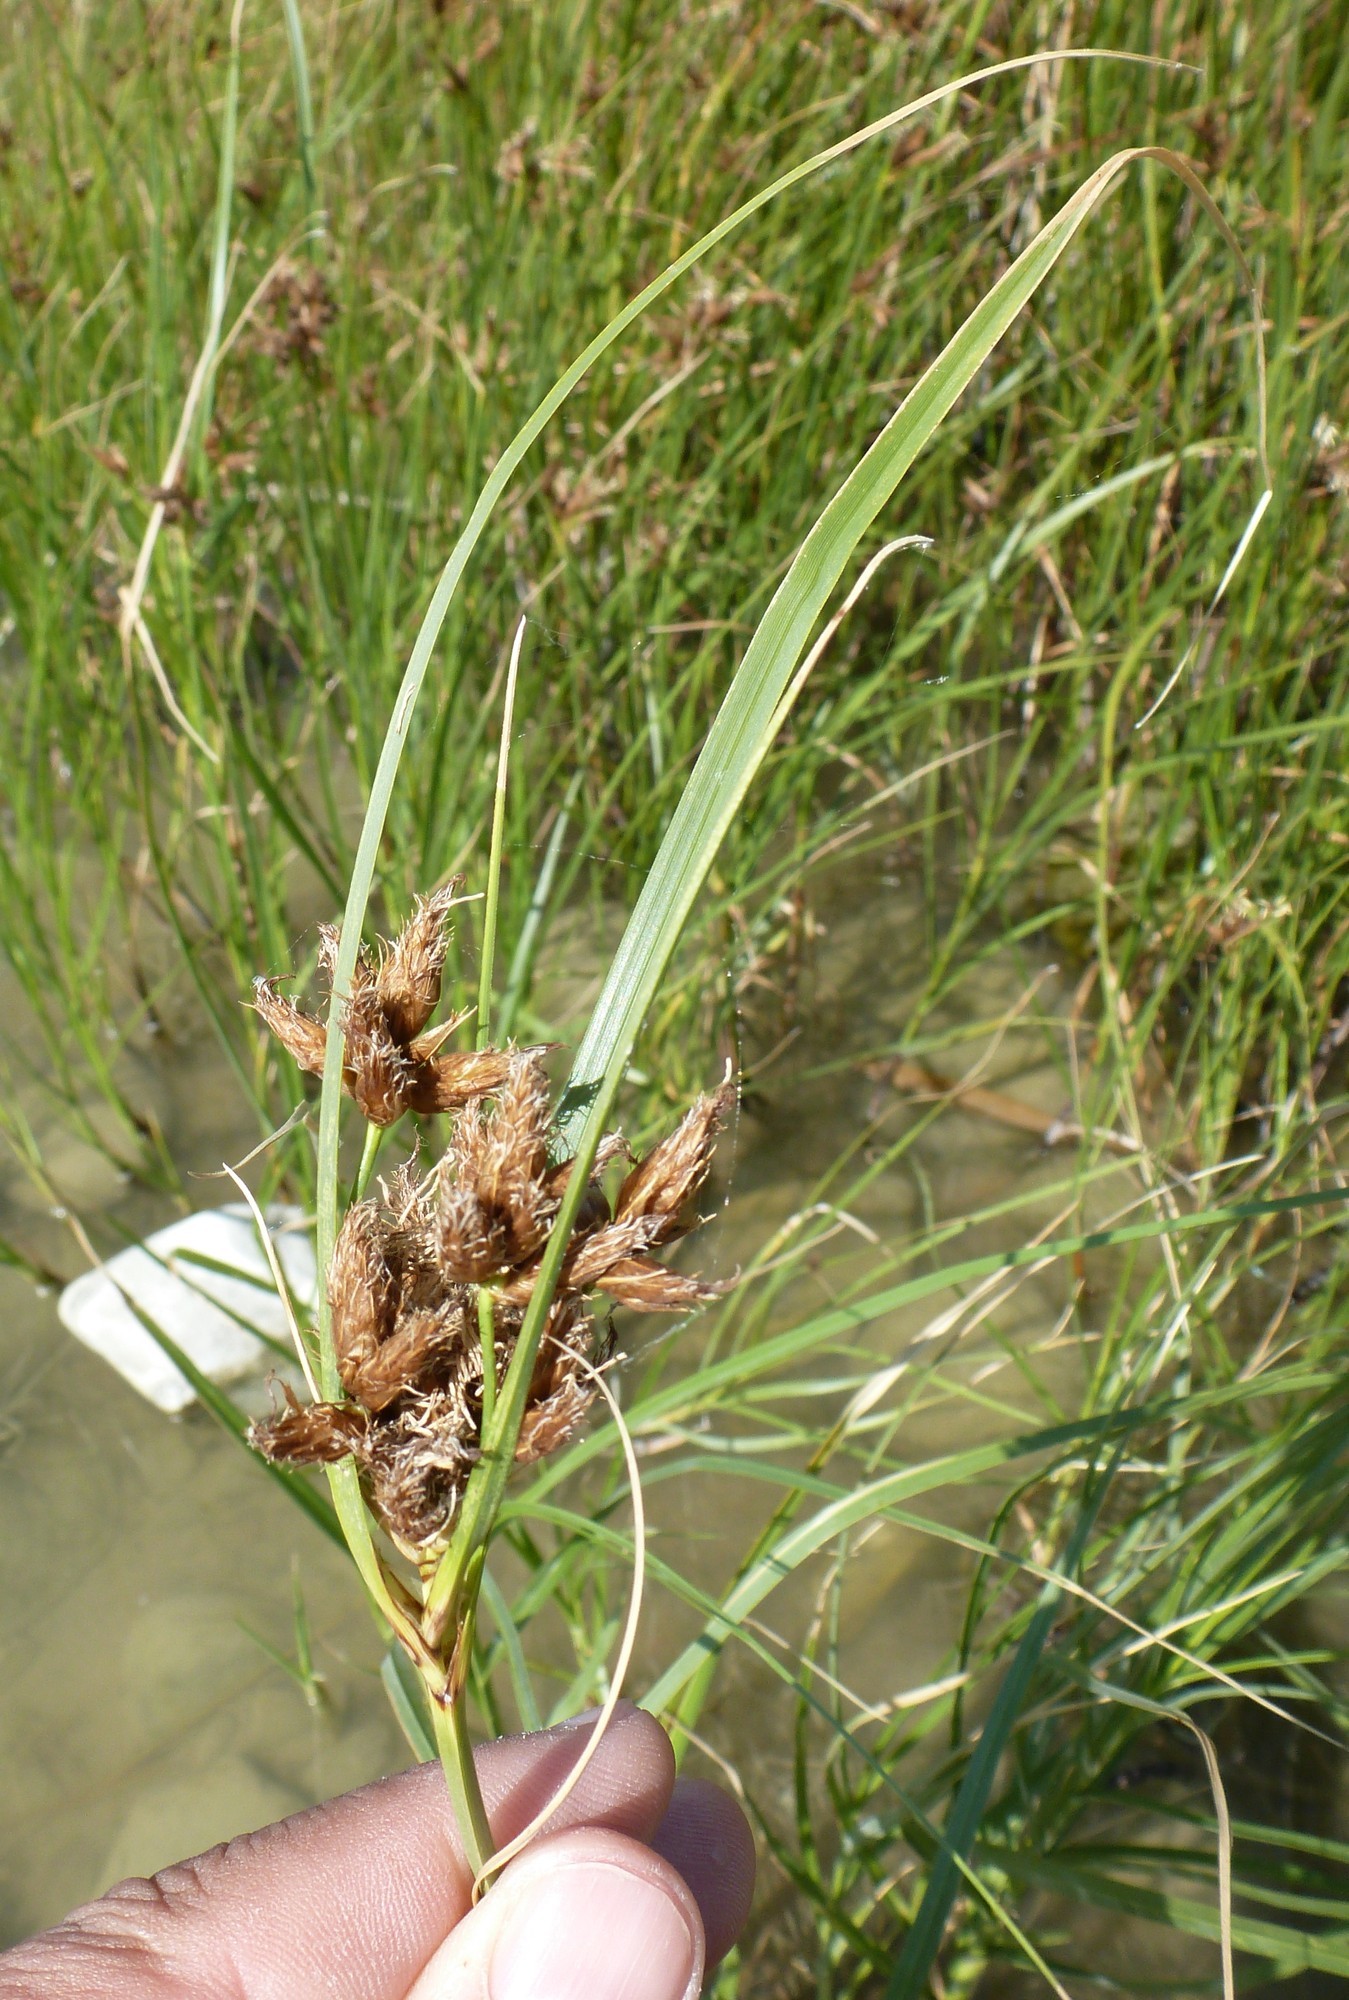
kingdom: Plantae
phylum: Tracheophyta
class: Liliopsida
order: Poales
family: Cyperaceae
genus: Bolboschoenus
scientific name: Bolboschoenus
